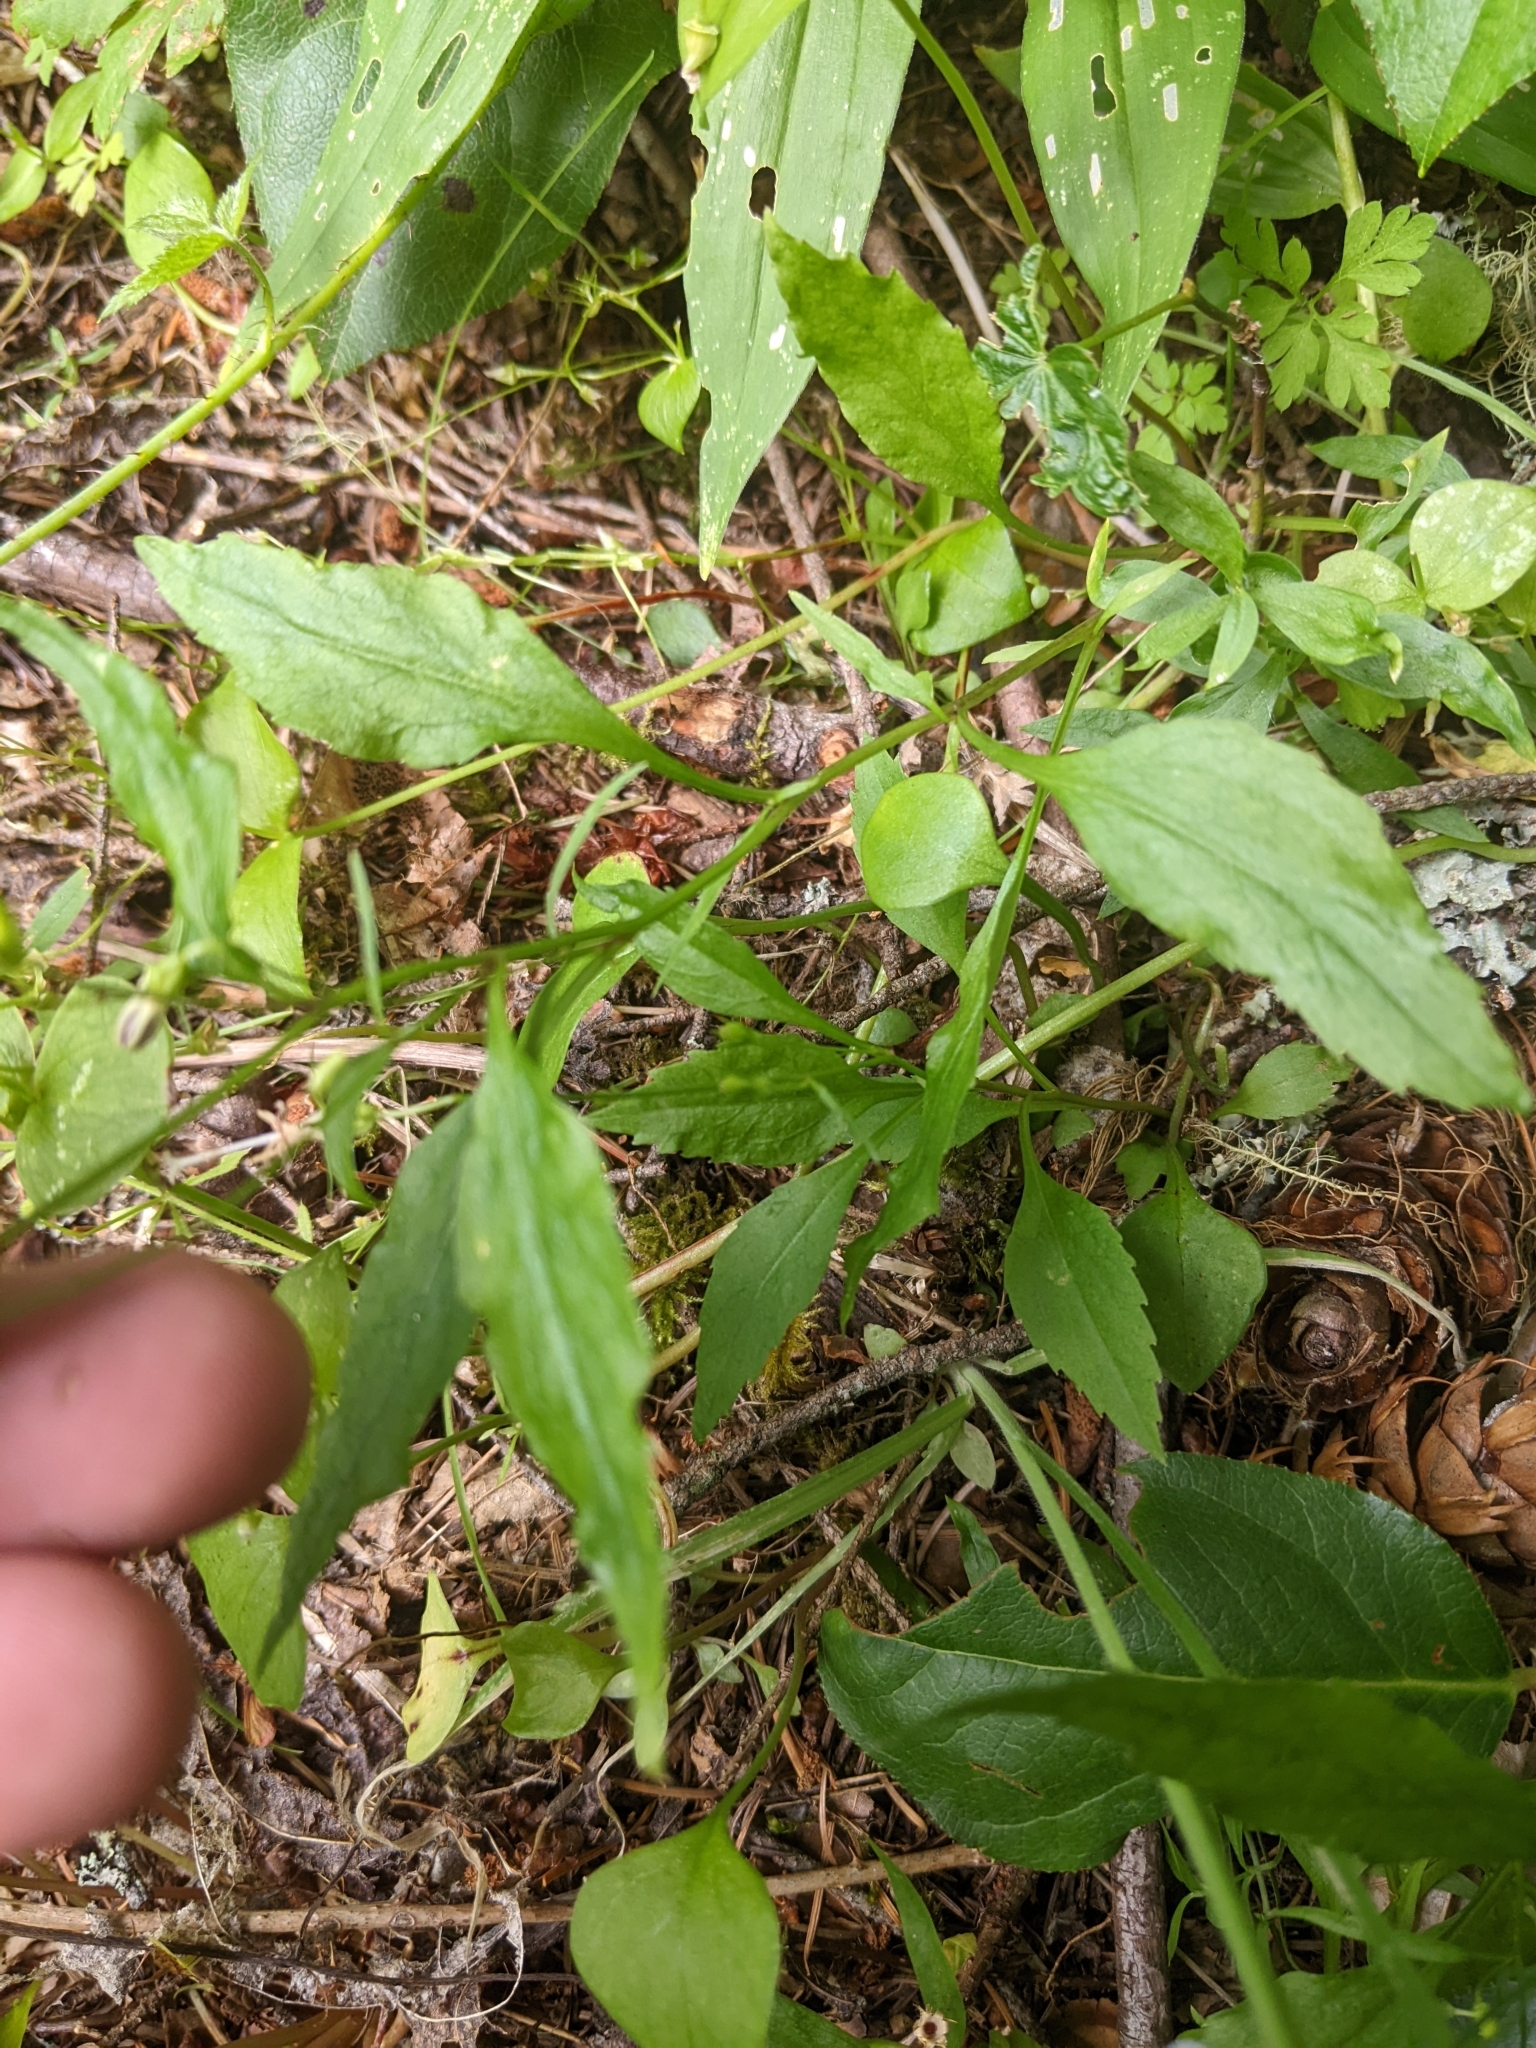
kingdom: Plantae
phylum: Tracheophyta
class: Magnoliopsida
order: Asterales
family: Campanulaceae
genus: Campanula
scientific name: Campanula scouleri
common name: Scouler's harebell
